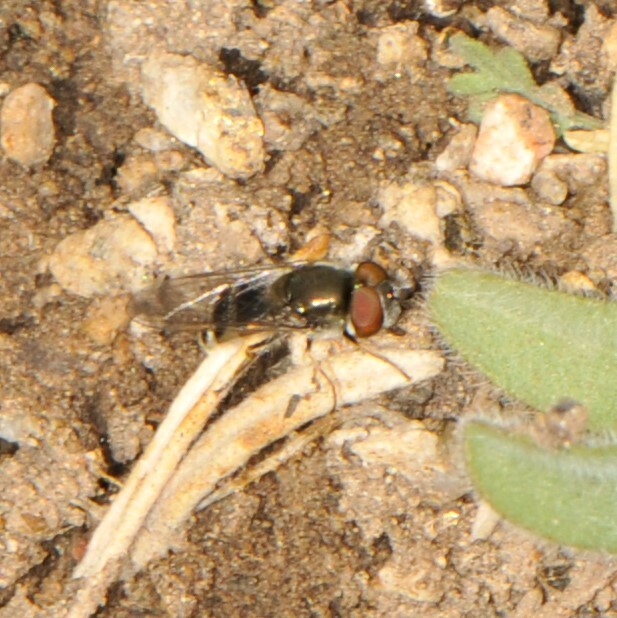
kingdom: Animalia
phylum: Arthropoda
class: Insecta
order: Diptera
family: Syrphidae
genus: Platycheirus
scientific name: Platycheirus
